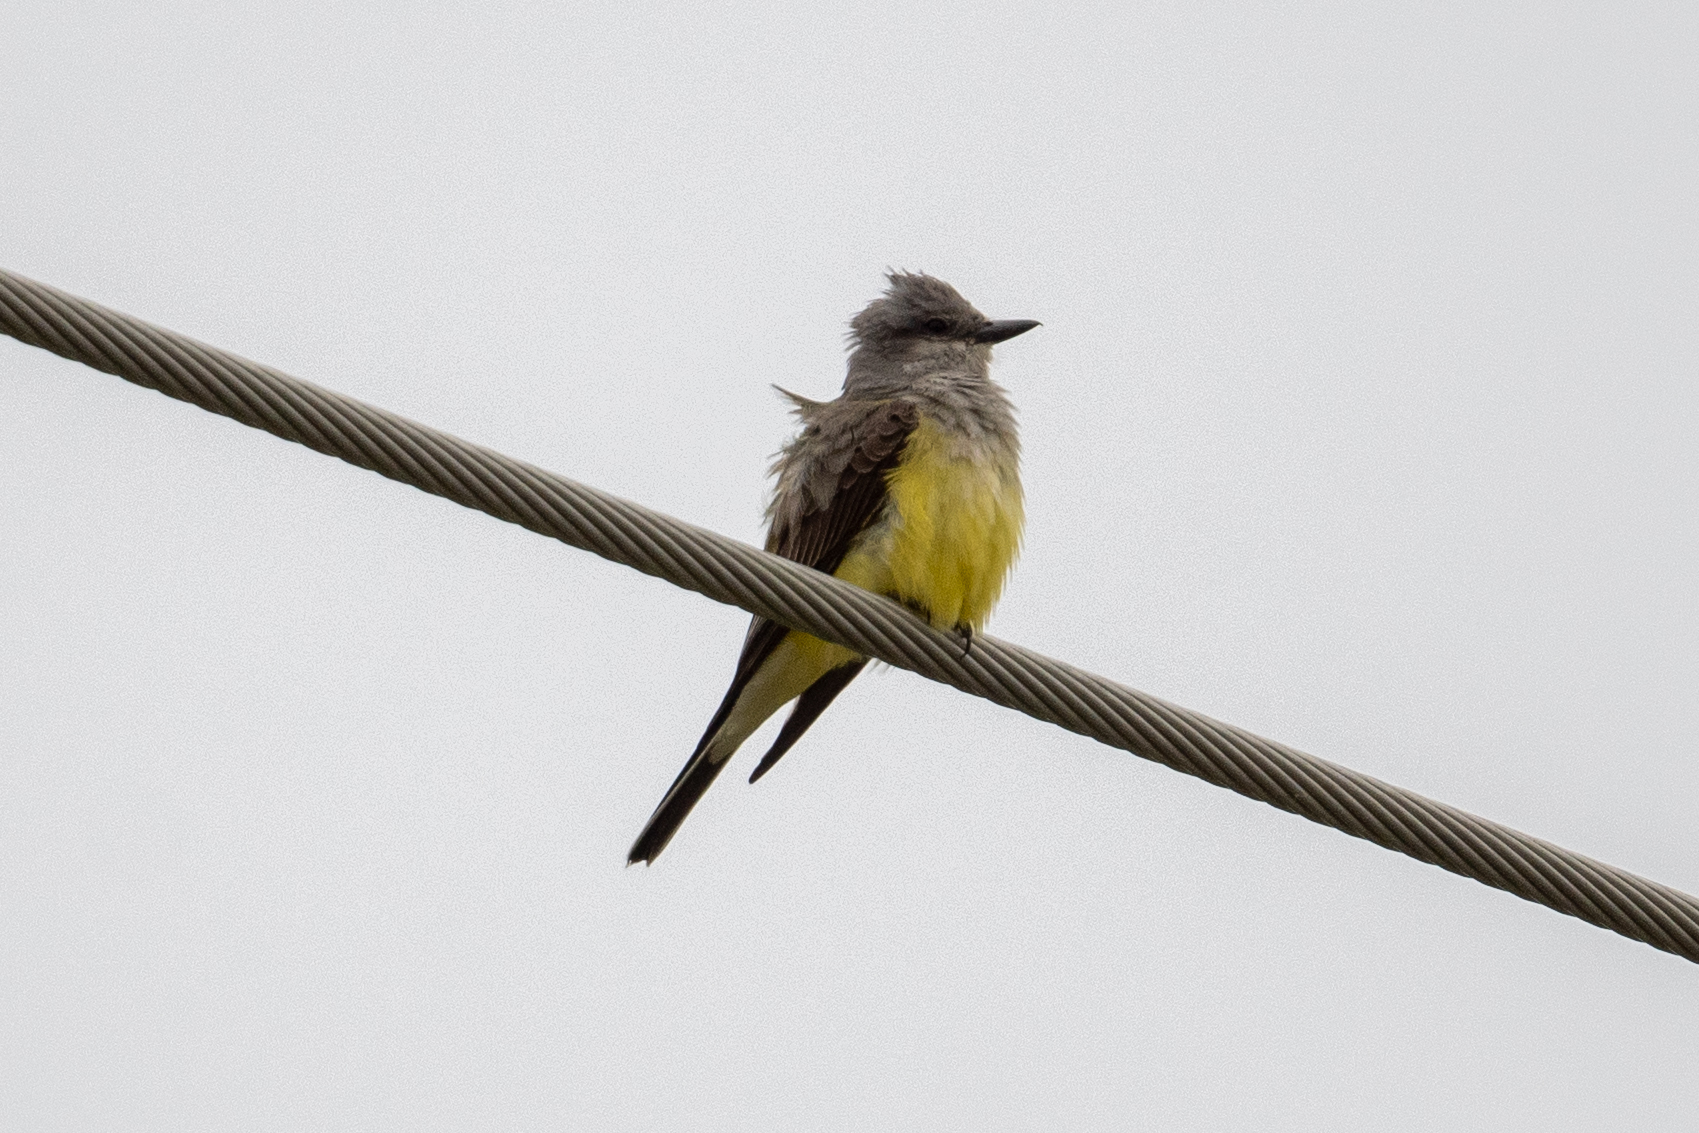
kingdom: Animalia
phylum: Chordata
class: Aves
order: Passeriformes
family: Tyrannidae
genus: Tyrannus
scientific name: Tyrannus verticalis
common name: Western kingbird
